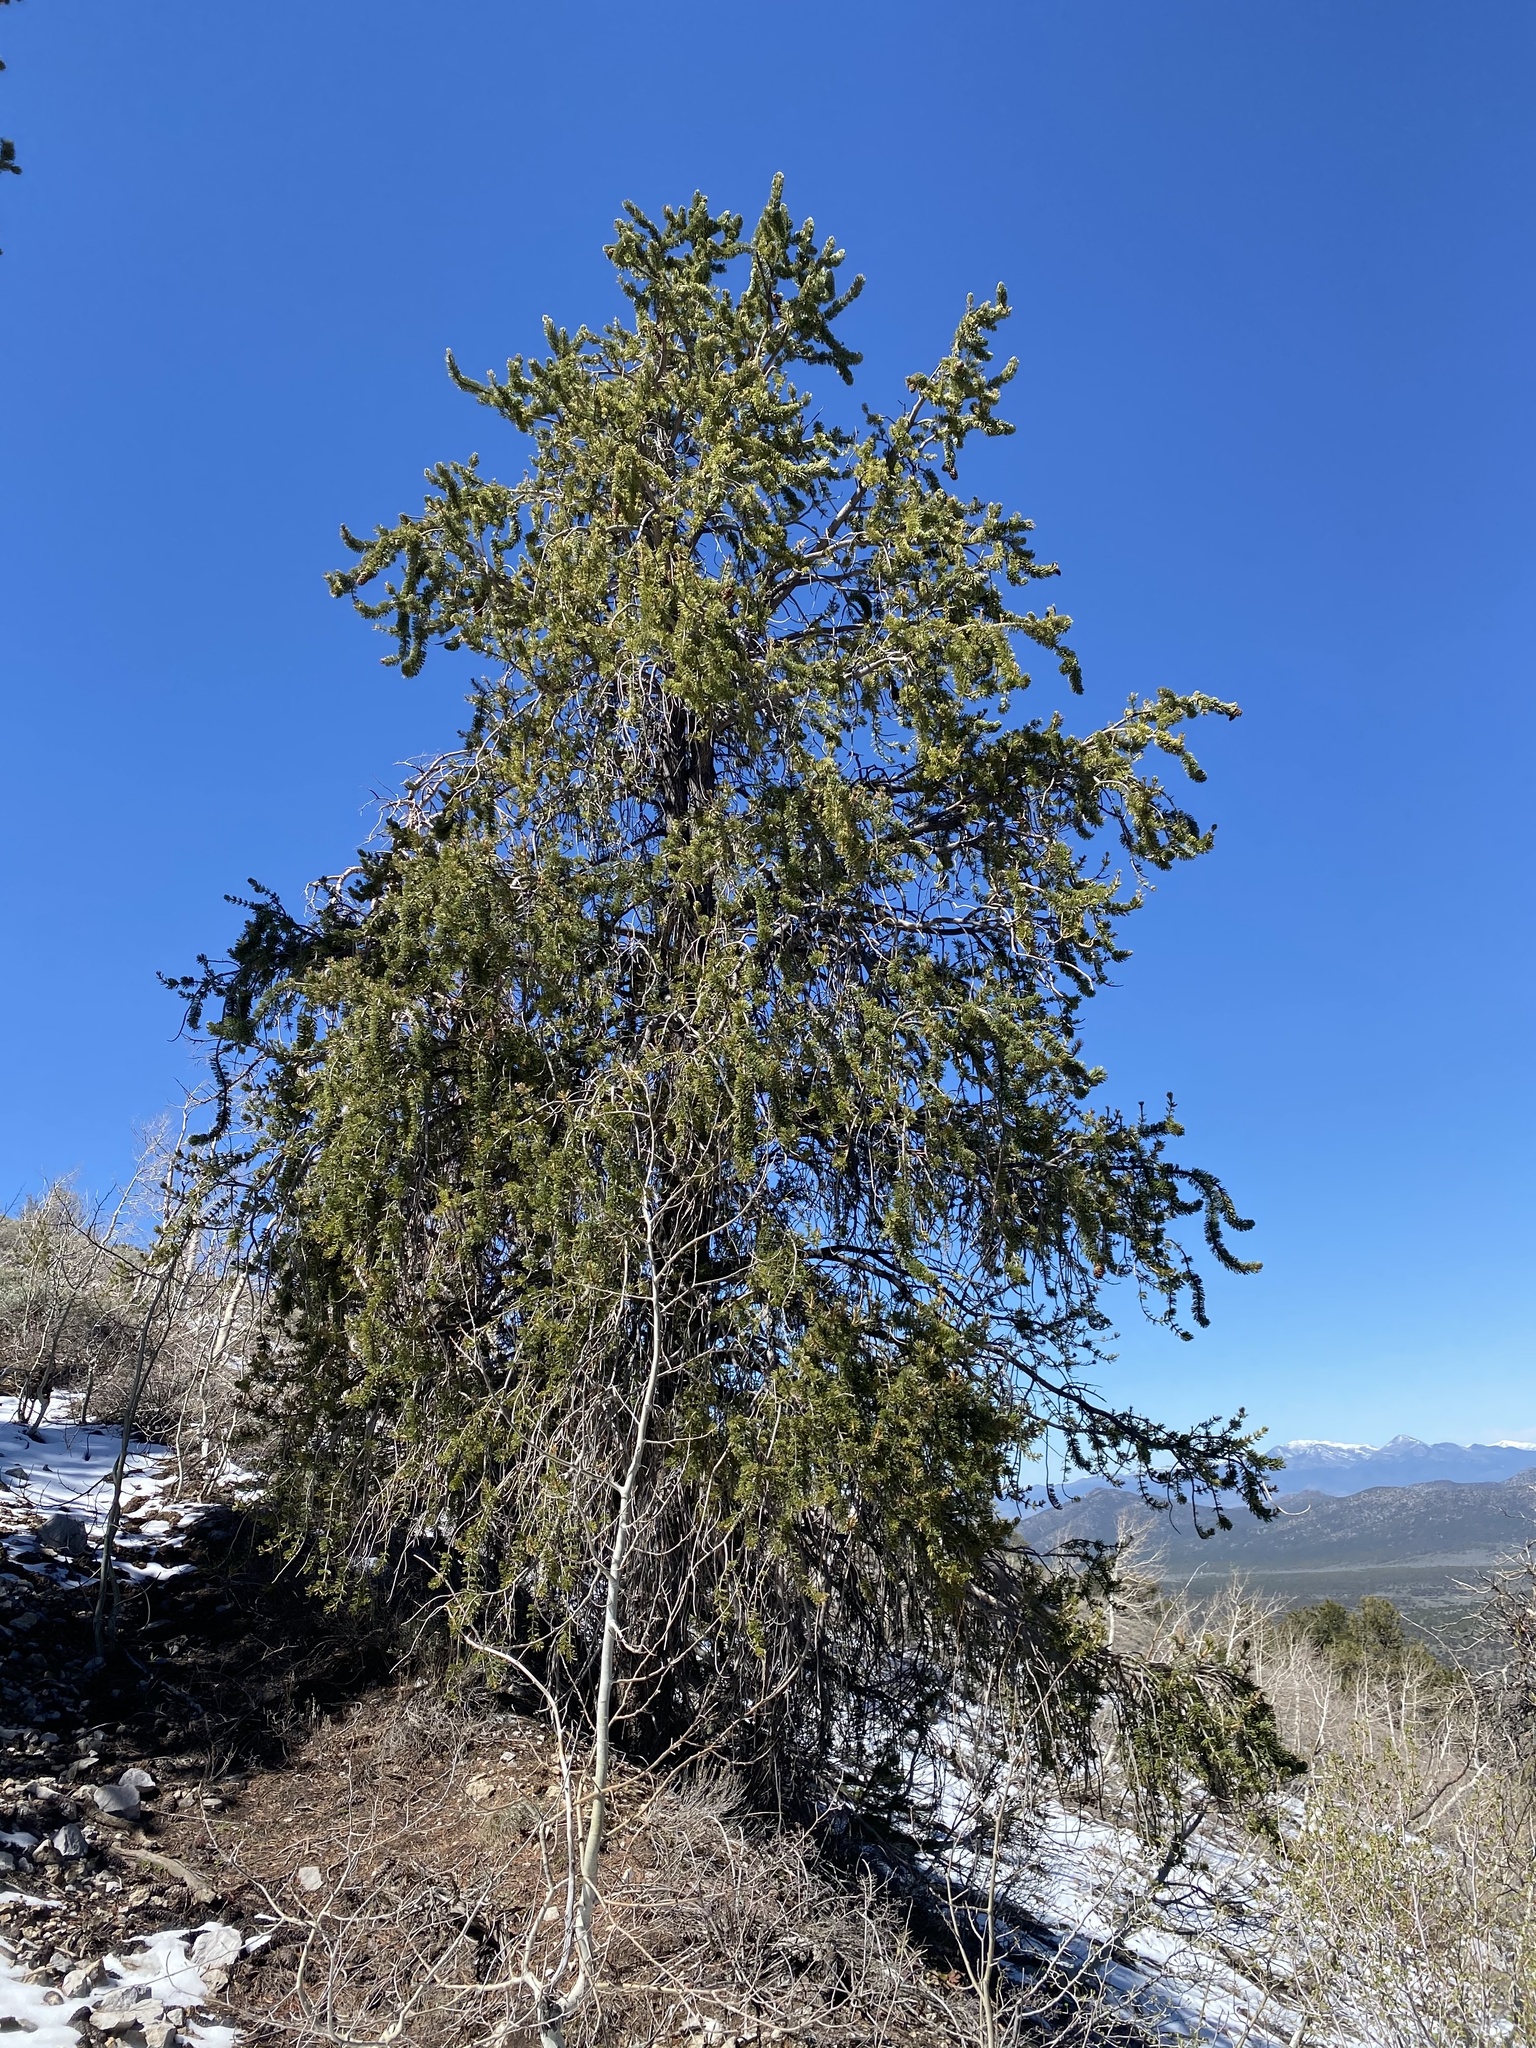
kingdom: Plantae
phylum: Tracheophyta
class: Pinopsida
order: Pinales
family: Pinaceae
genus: Pinus
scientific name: Pinus longaeva
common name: Intermountain bristlecone pine
